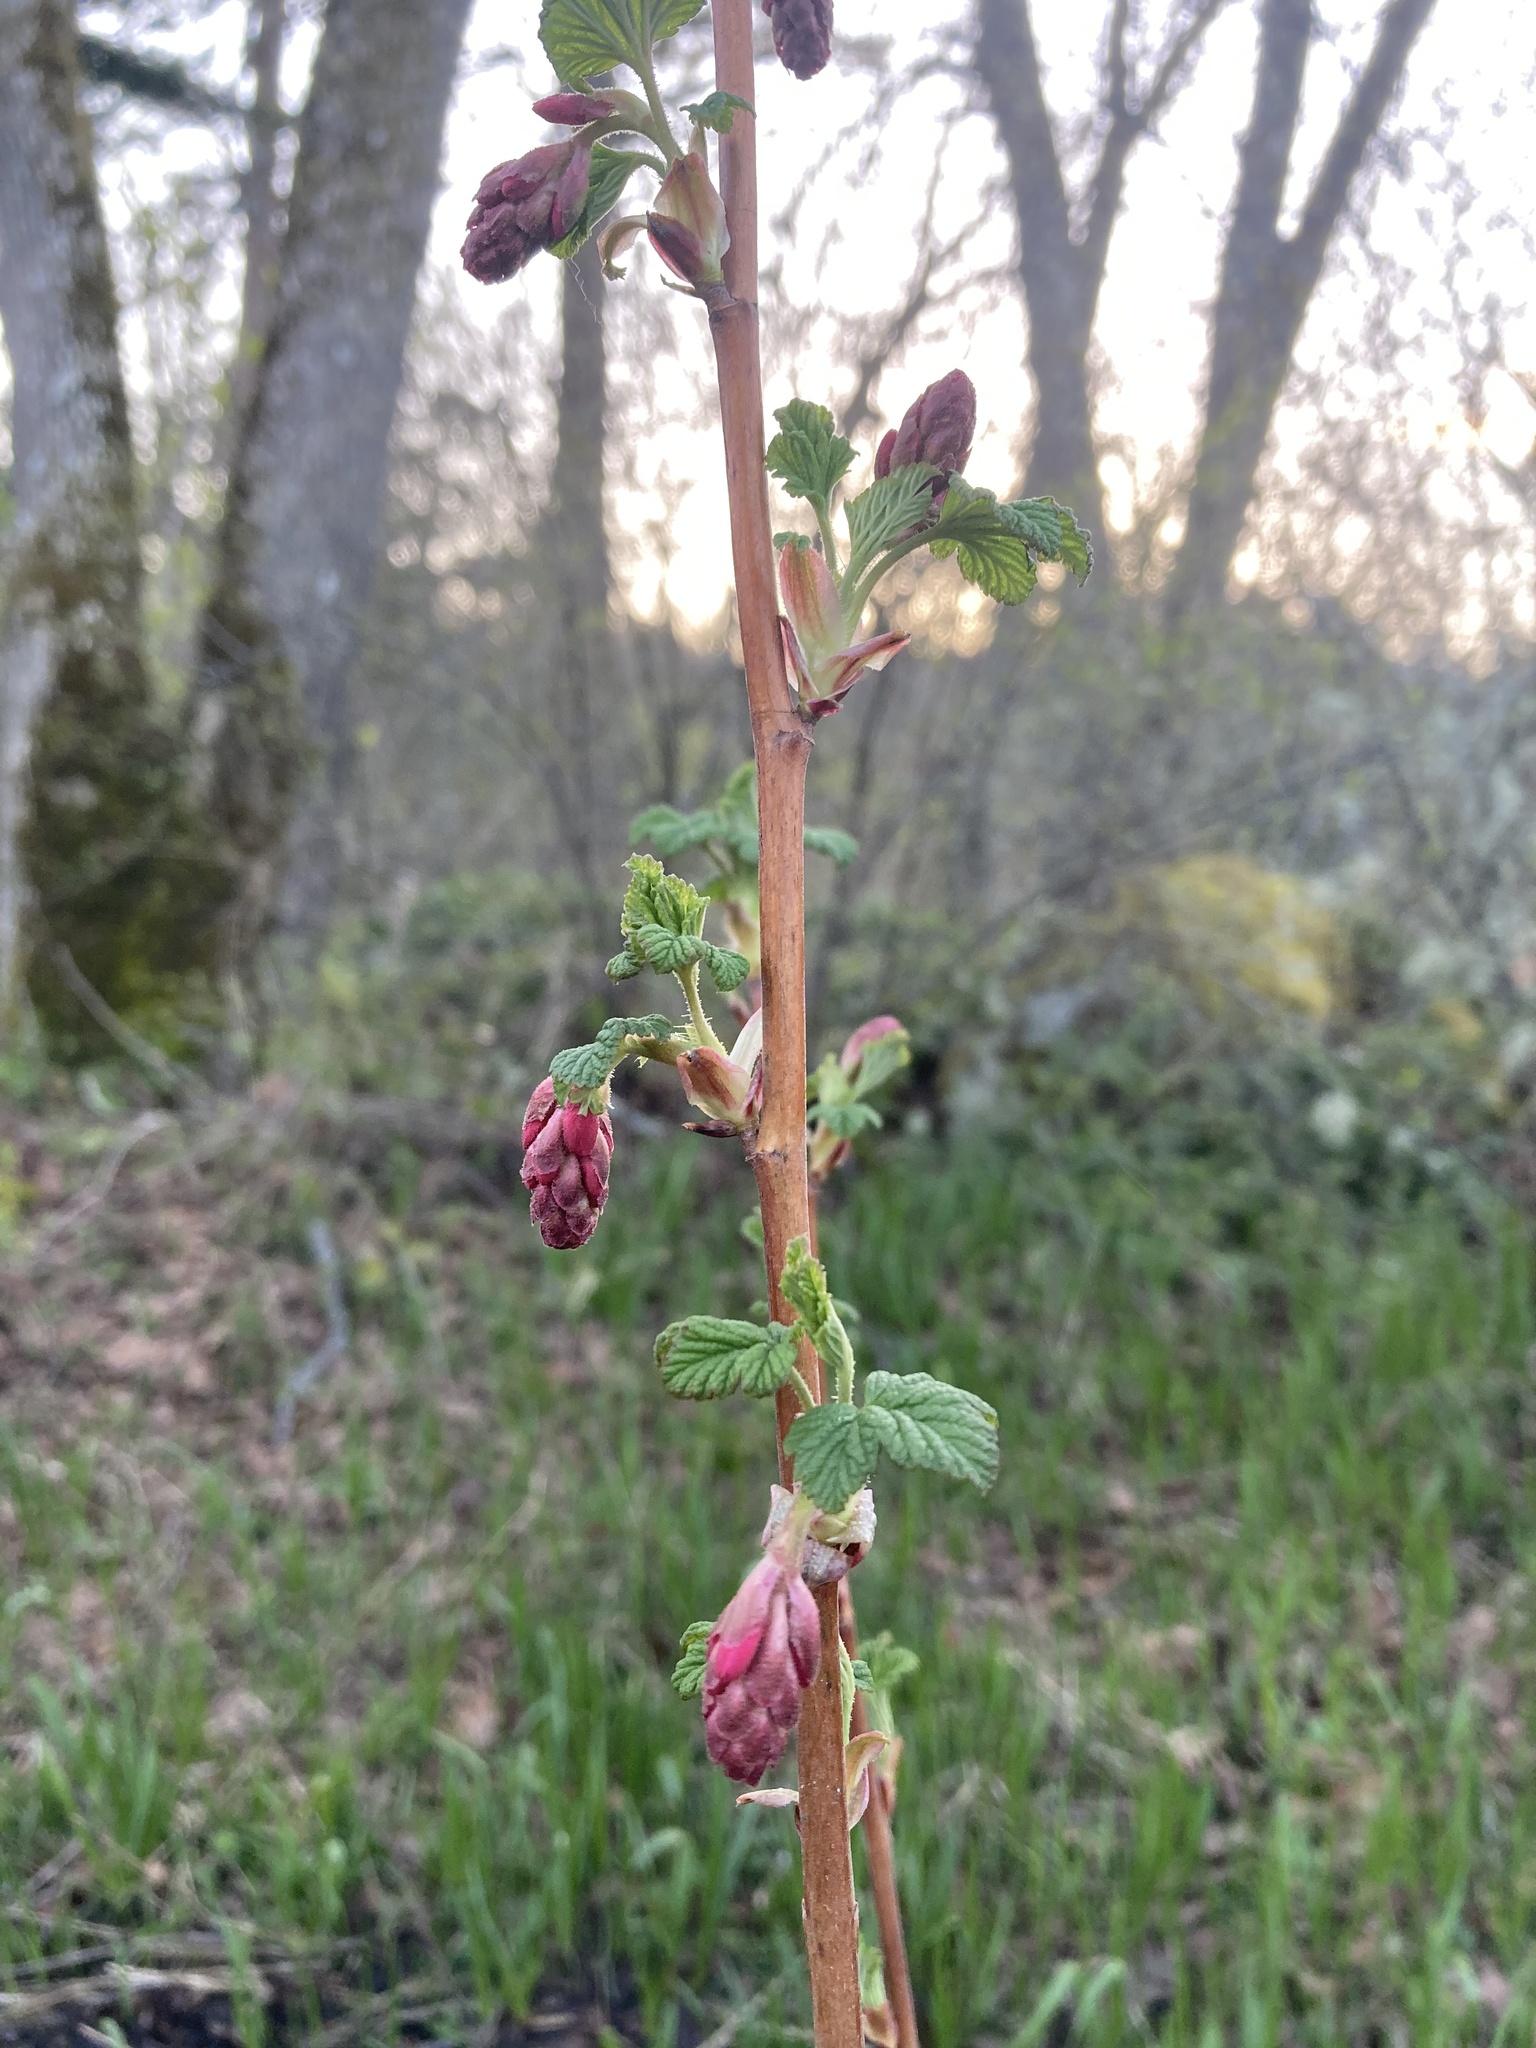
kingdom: Plantae
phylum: Tracheophyta
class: Magnoliopsida
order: Saxifragales
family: Grossulariaceae
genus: Ribes
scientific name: Ribes sanguineum
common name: Flowering currant
